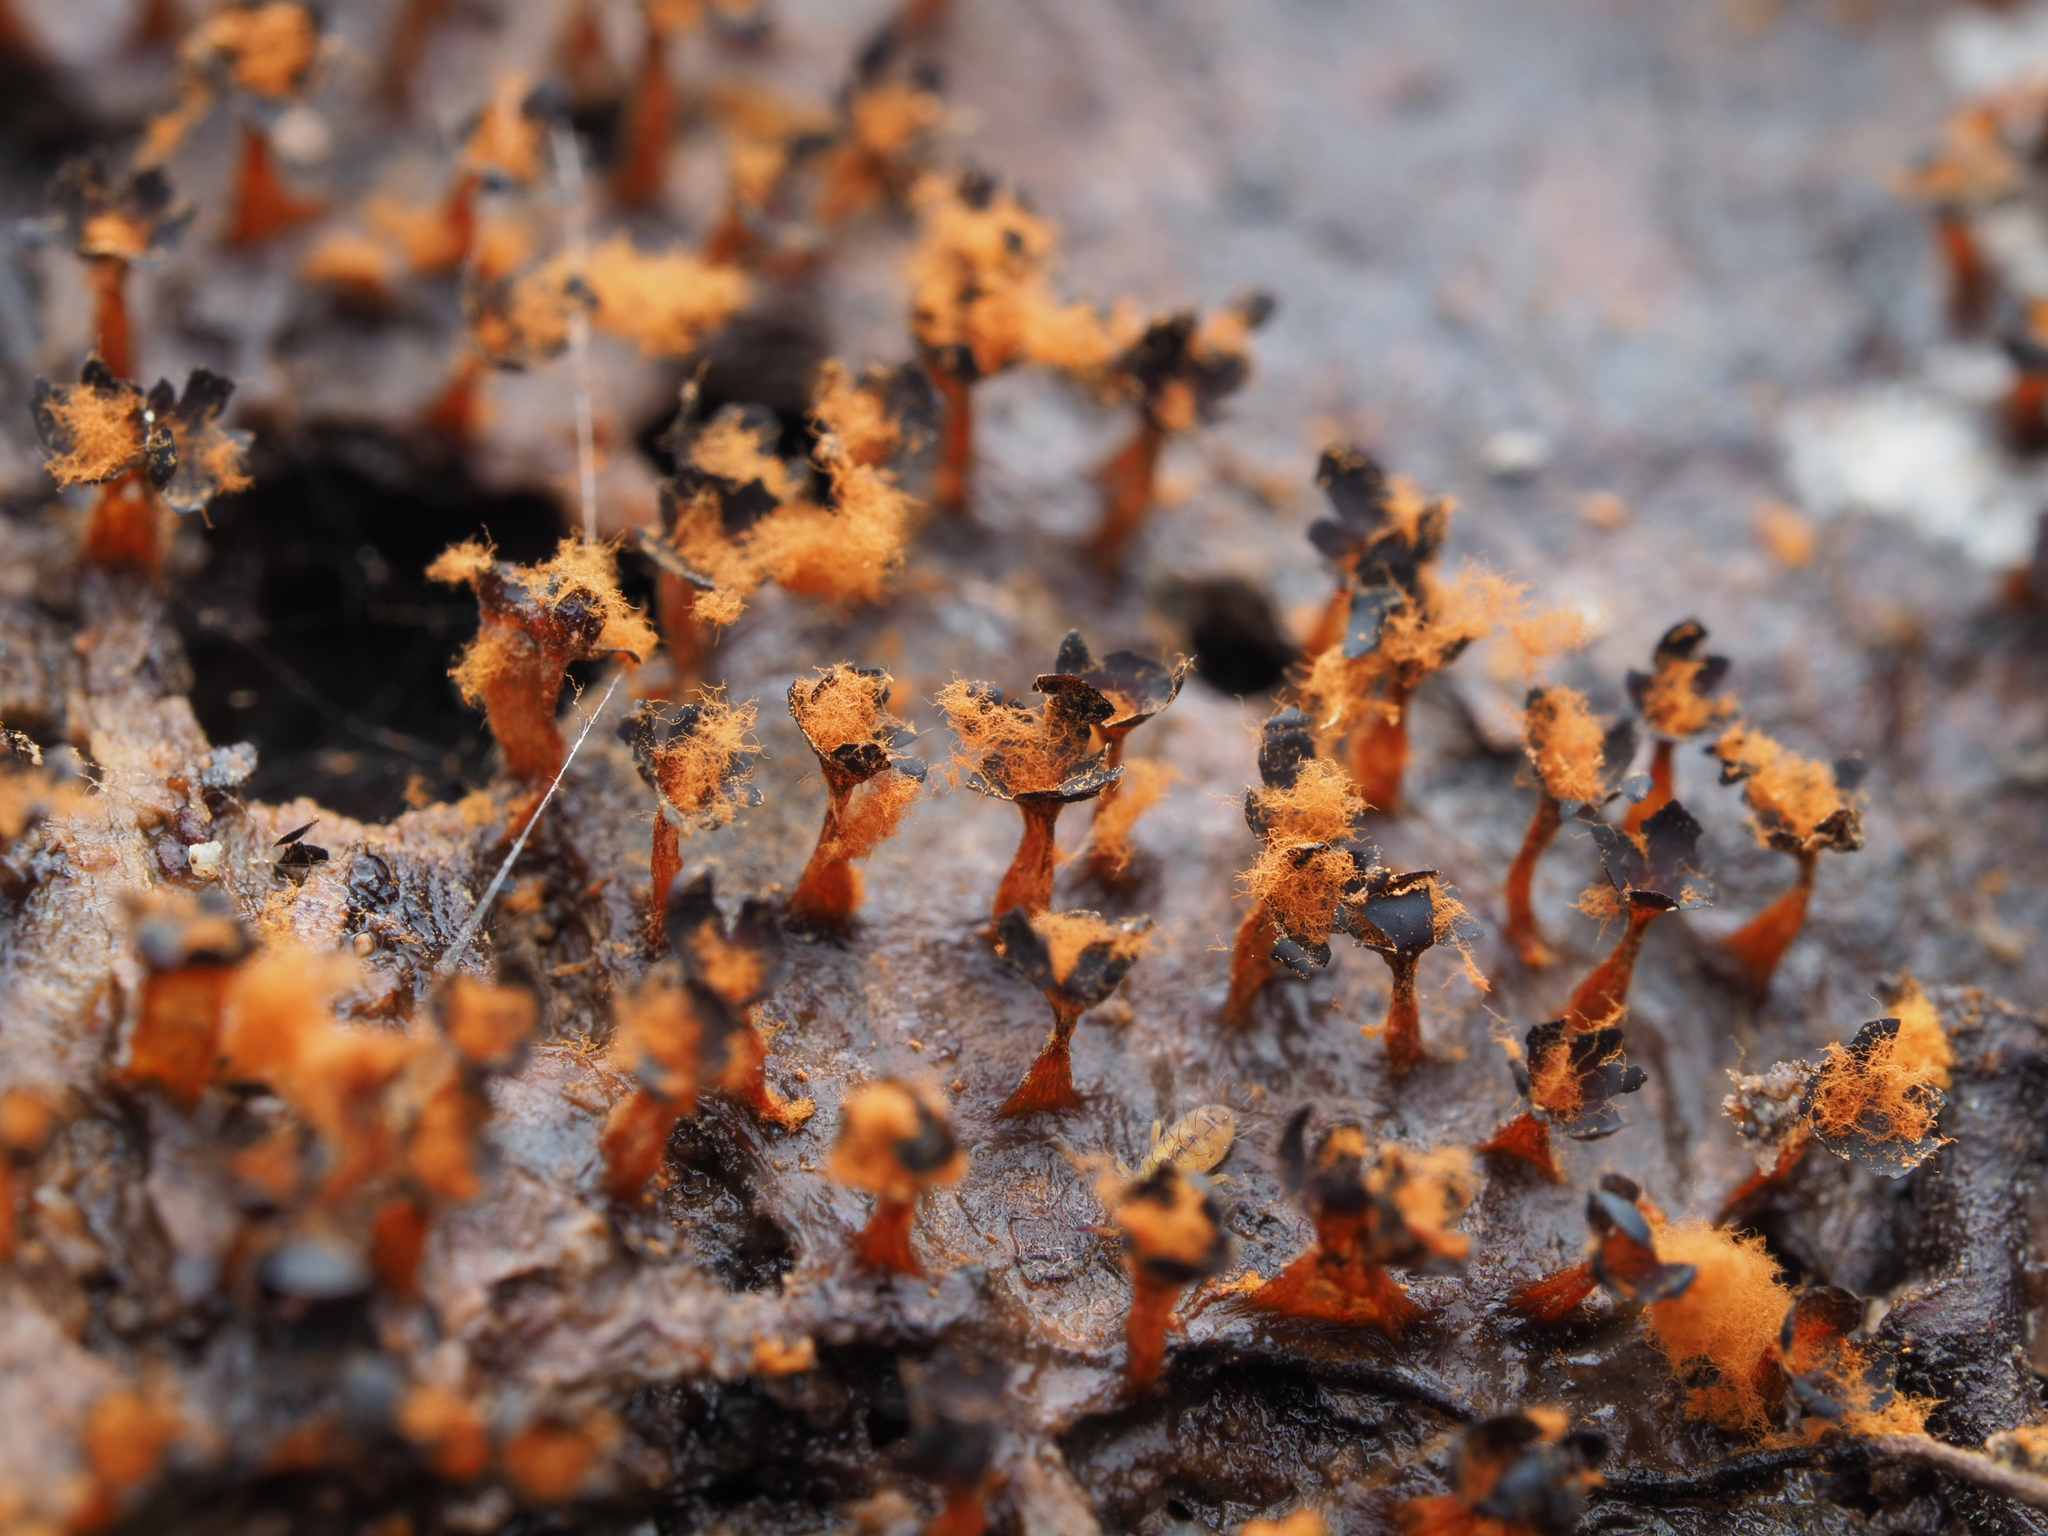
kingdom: Protozoa
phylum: Mycetozoa
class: Myxomycetes
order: Trichiales
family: Trichiaceae
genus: Metatrichia
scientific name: Metatrichia floriformis
